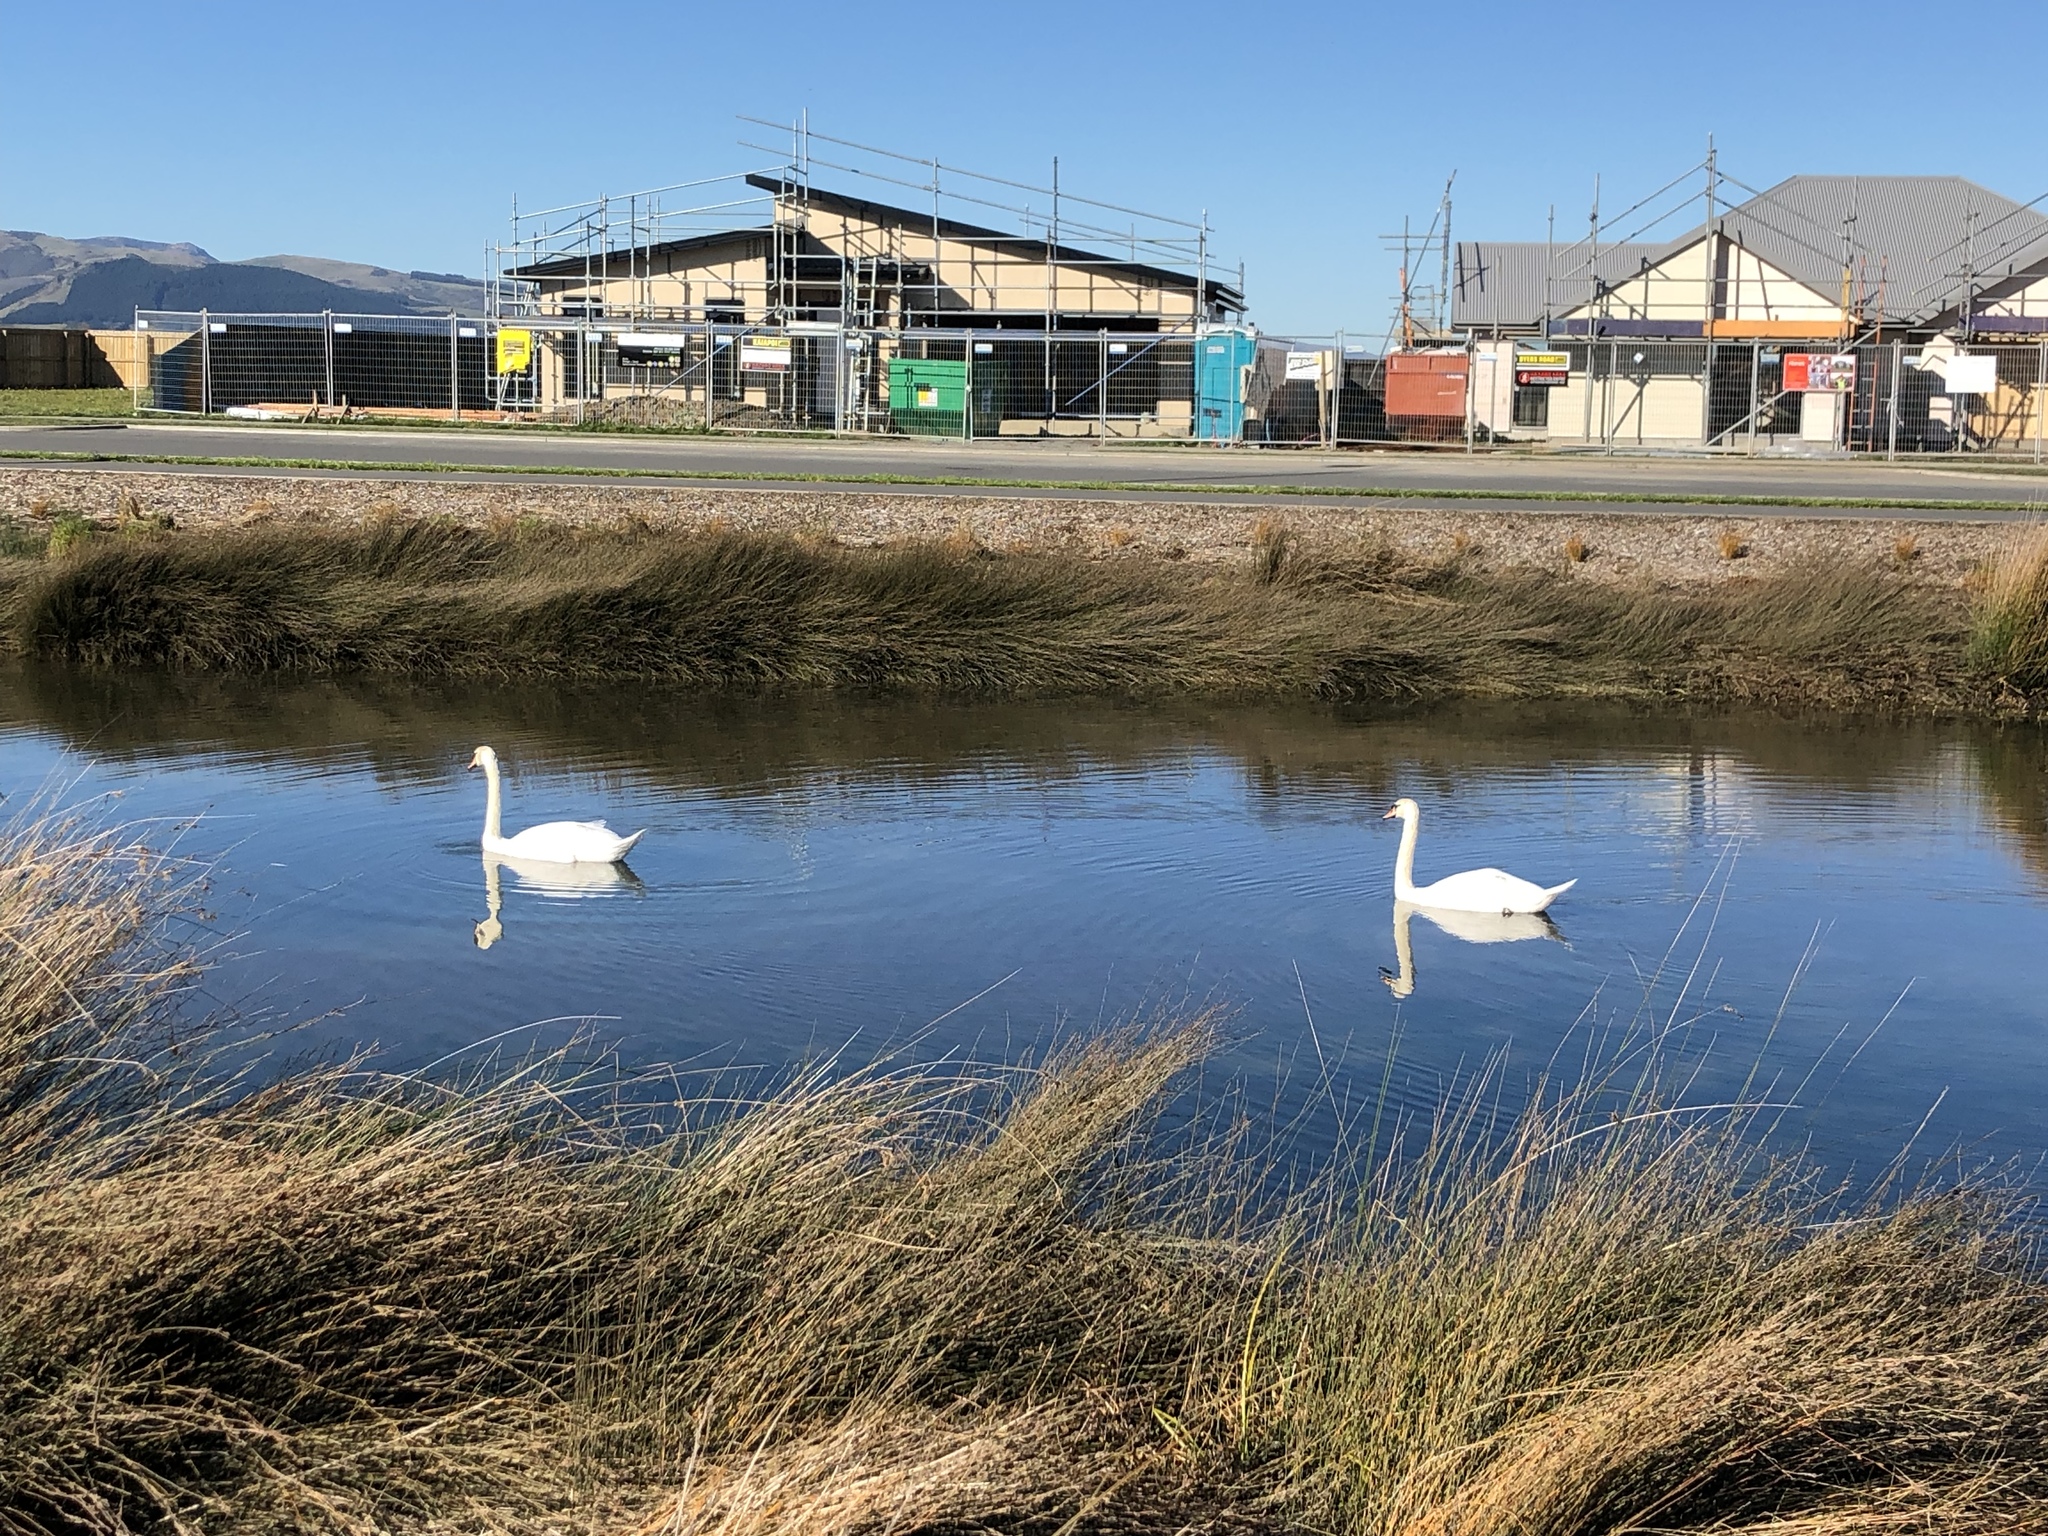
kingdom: Animalia
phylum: Chordata
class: Aves
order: Anseriformes
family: Anatidae
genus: Cygnus
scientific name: Cygnus olor
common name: Mute swan
